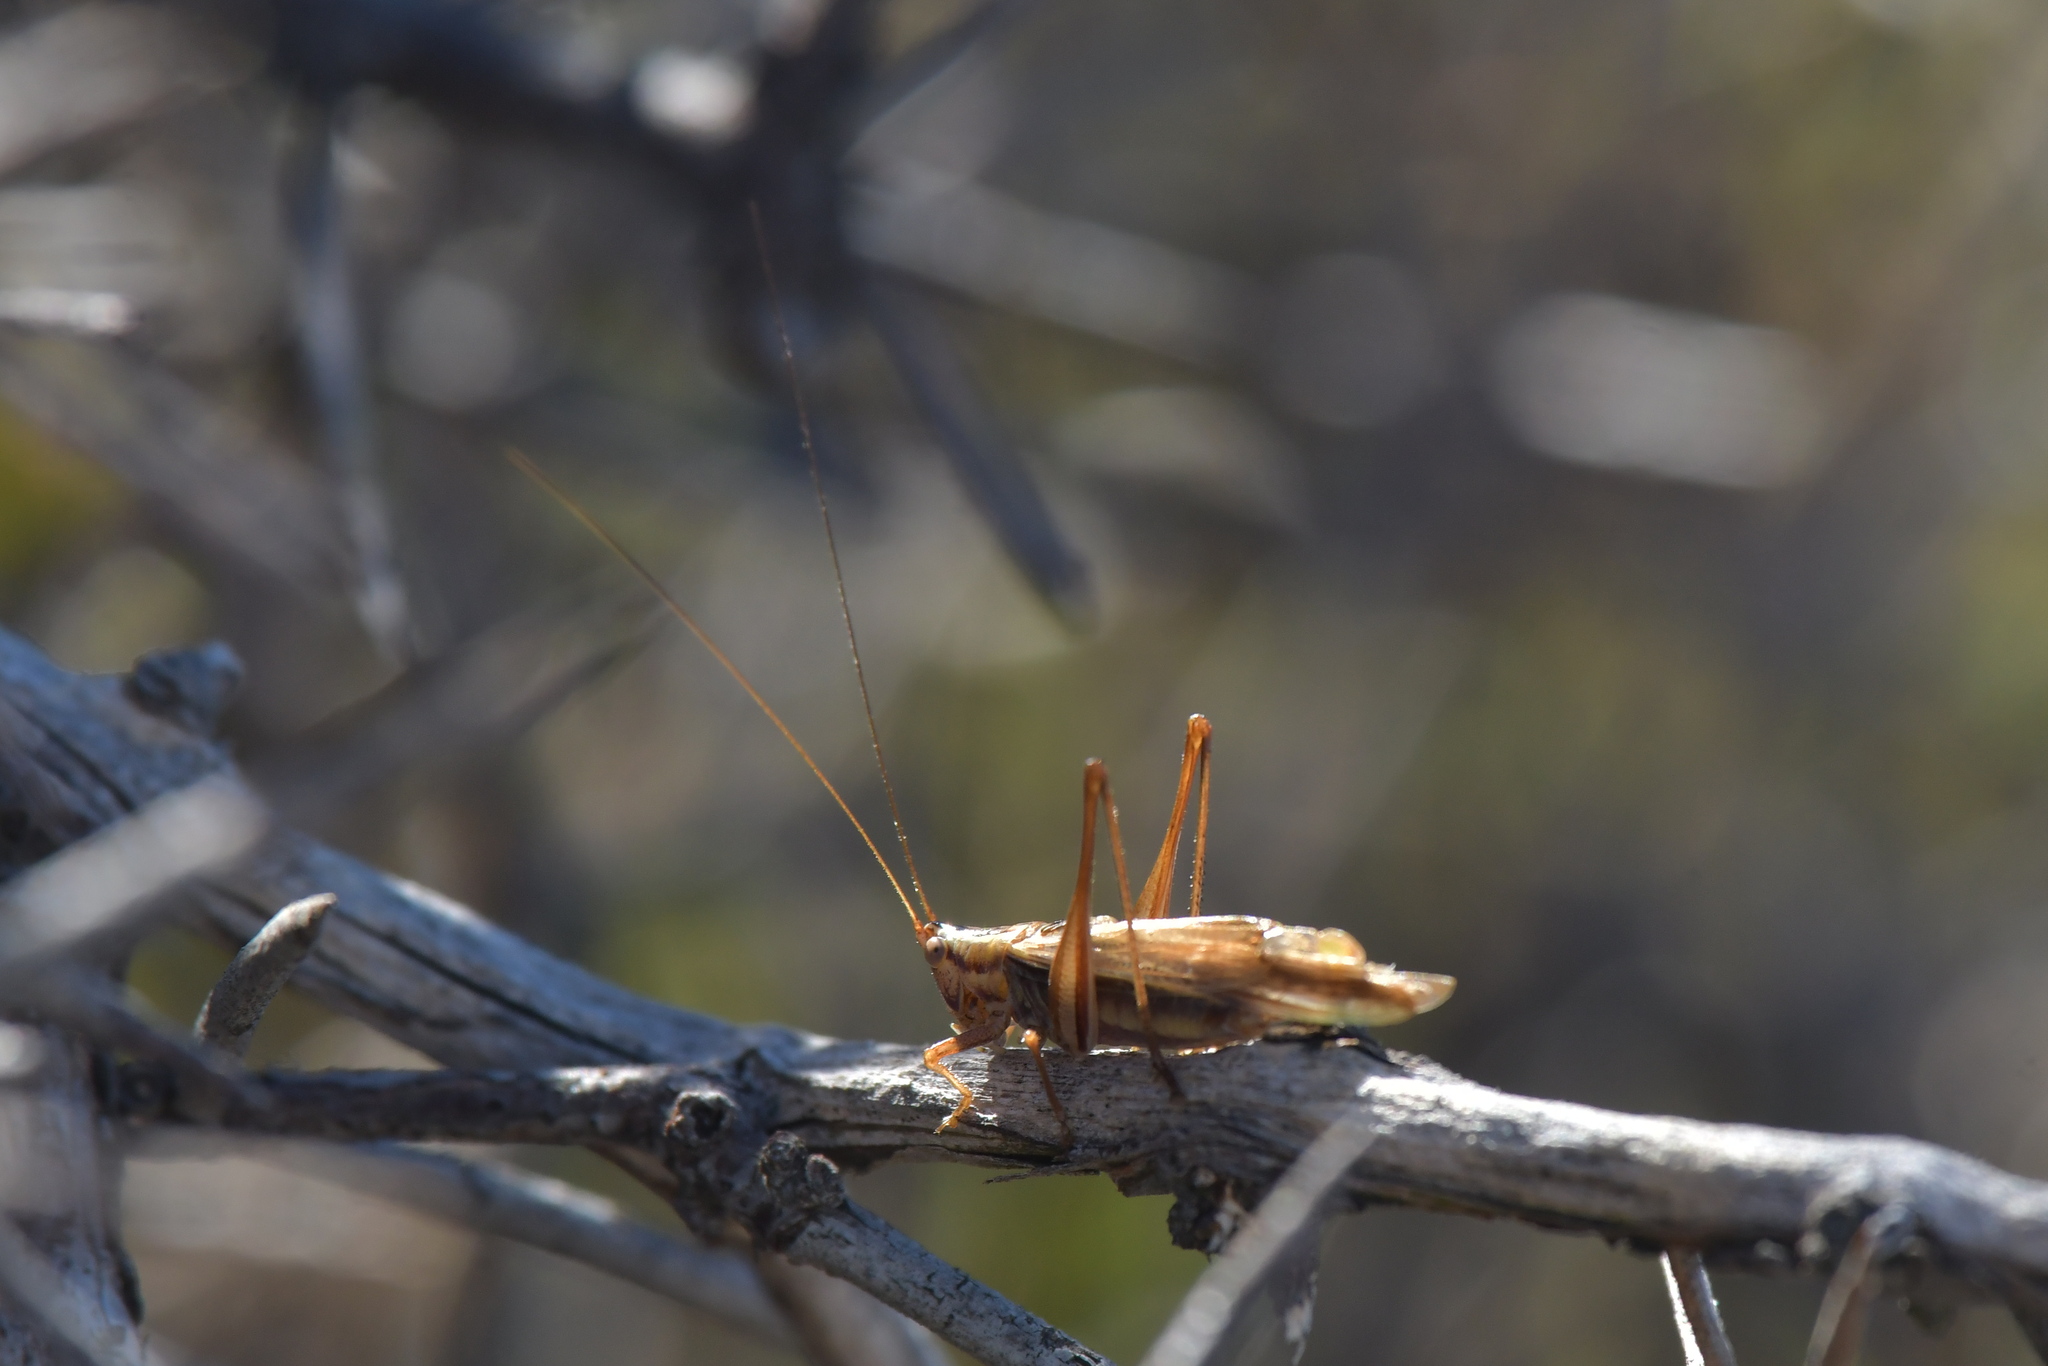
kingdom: Animalia
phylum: Arthropoda
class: Insecta
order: Orthoptera
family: Tettigoniidae
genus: Conocephalus
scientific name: Conocephalus bilineatus
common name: Small meadow katydid
